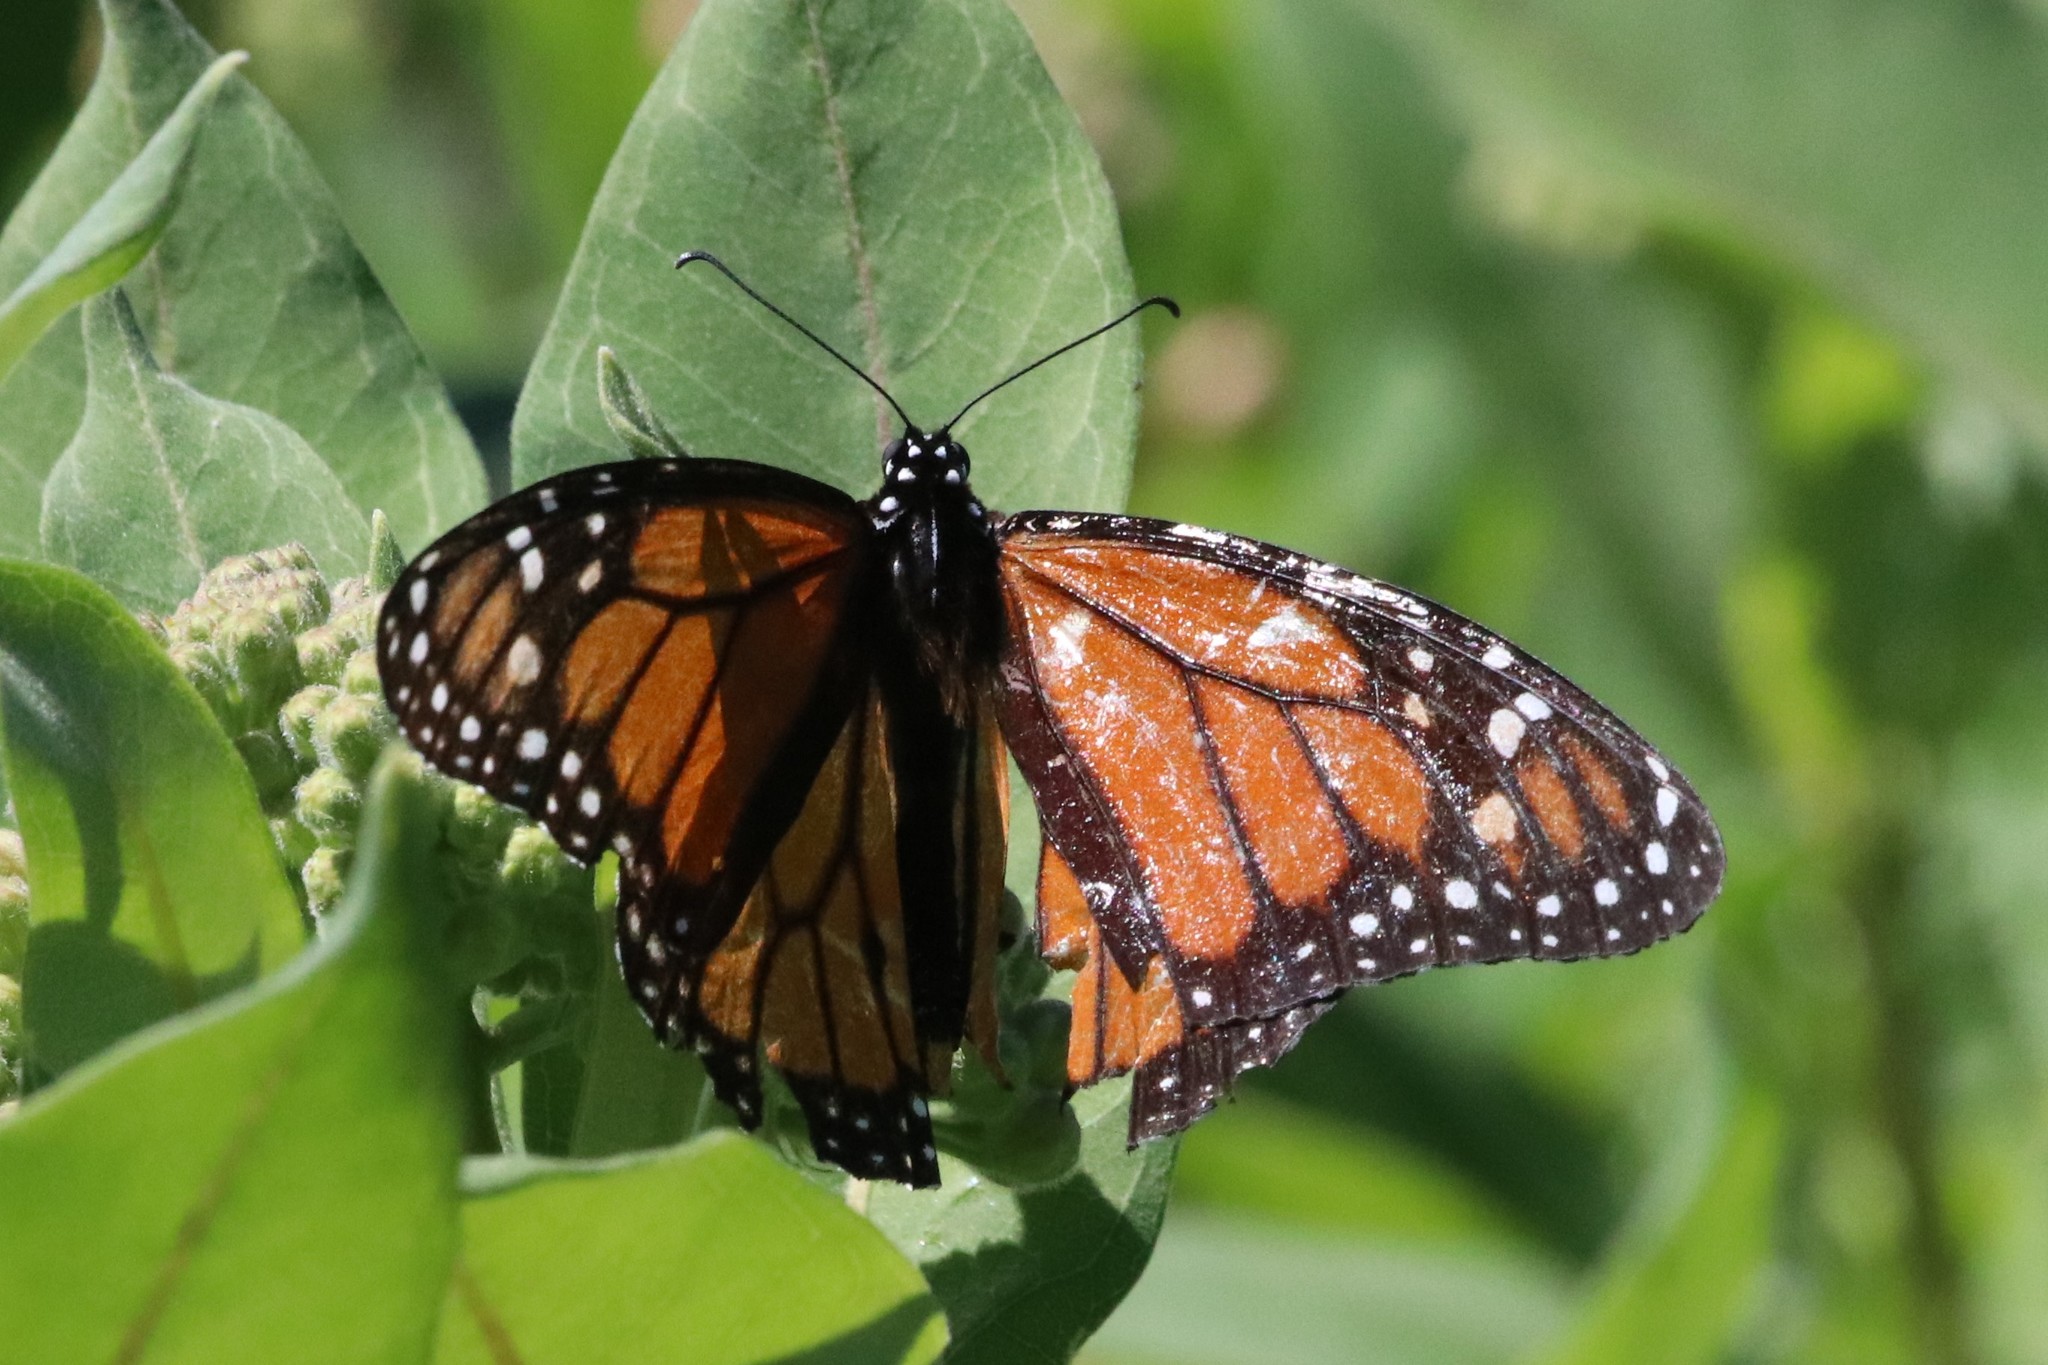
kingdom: Animalia
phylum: Arthropoda
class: Insecta
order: Lepidoptera
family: Nymphalidae
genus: Danaus
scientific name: Danaus plexippus
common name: Monarch
